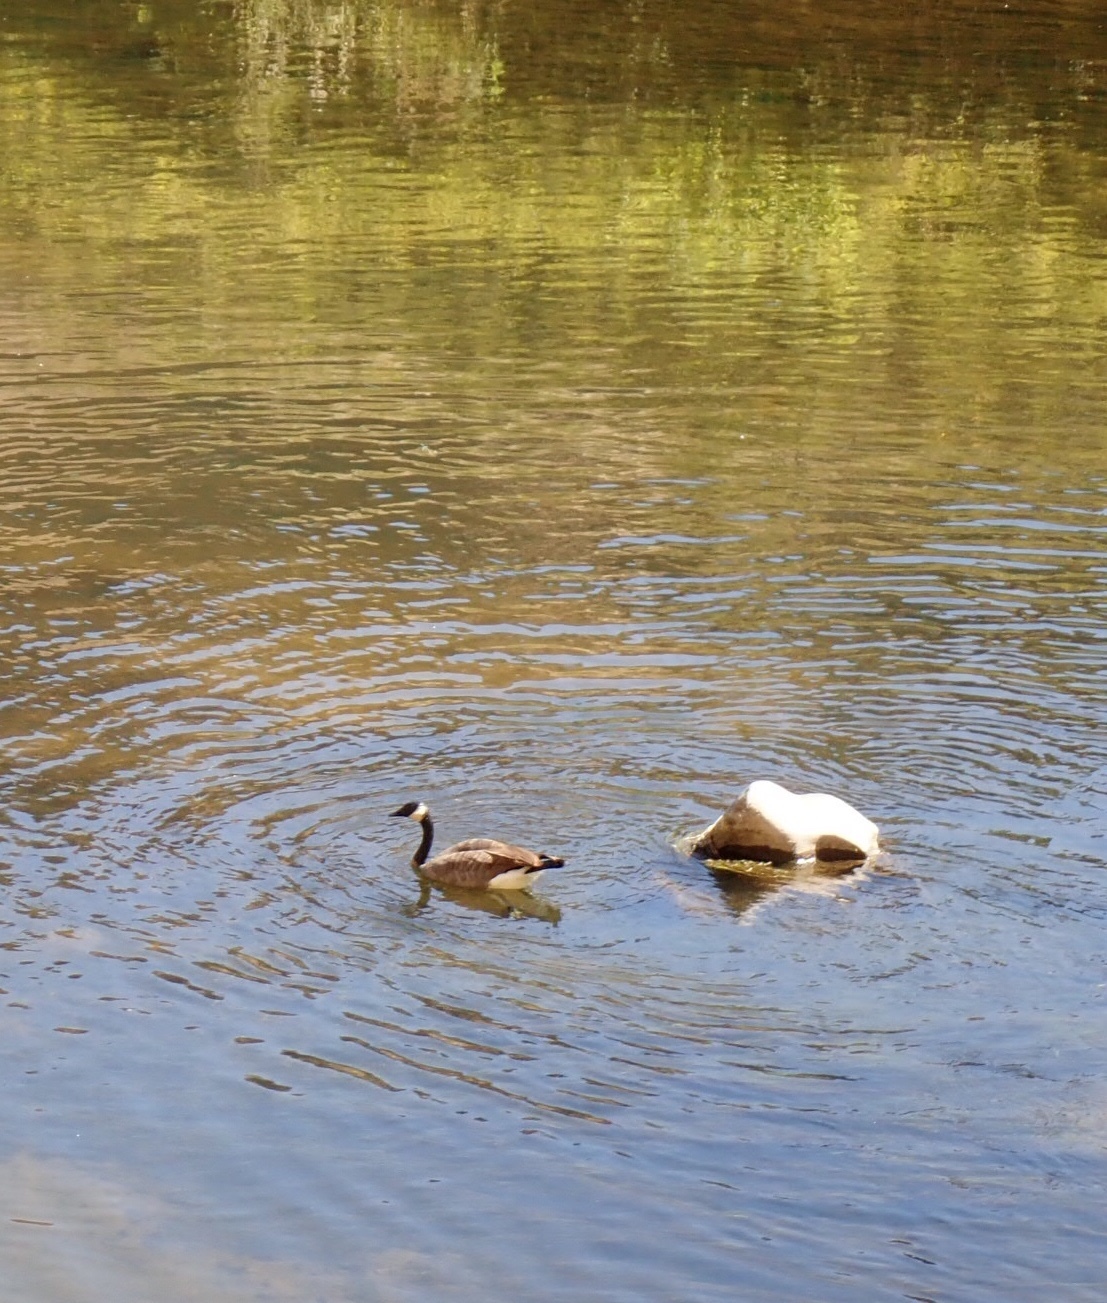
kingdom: Animalia
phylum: Chordata
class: Aves
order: Anseriformes
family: Anatidae
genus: Branta
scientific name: Branta canadensis
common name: Canada goose
